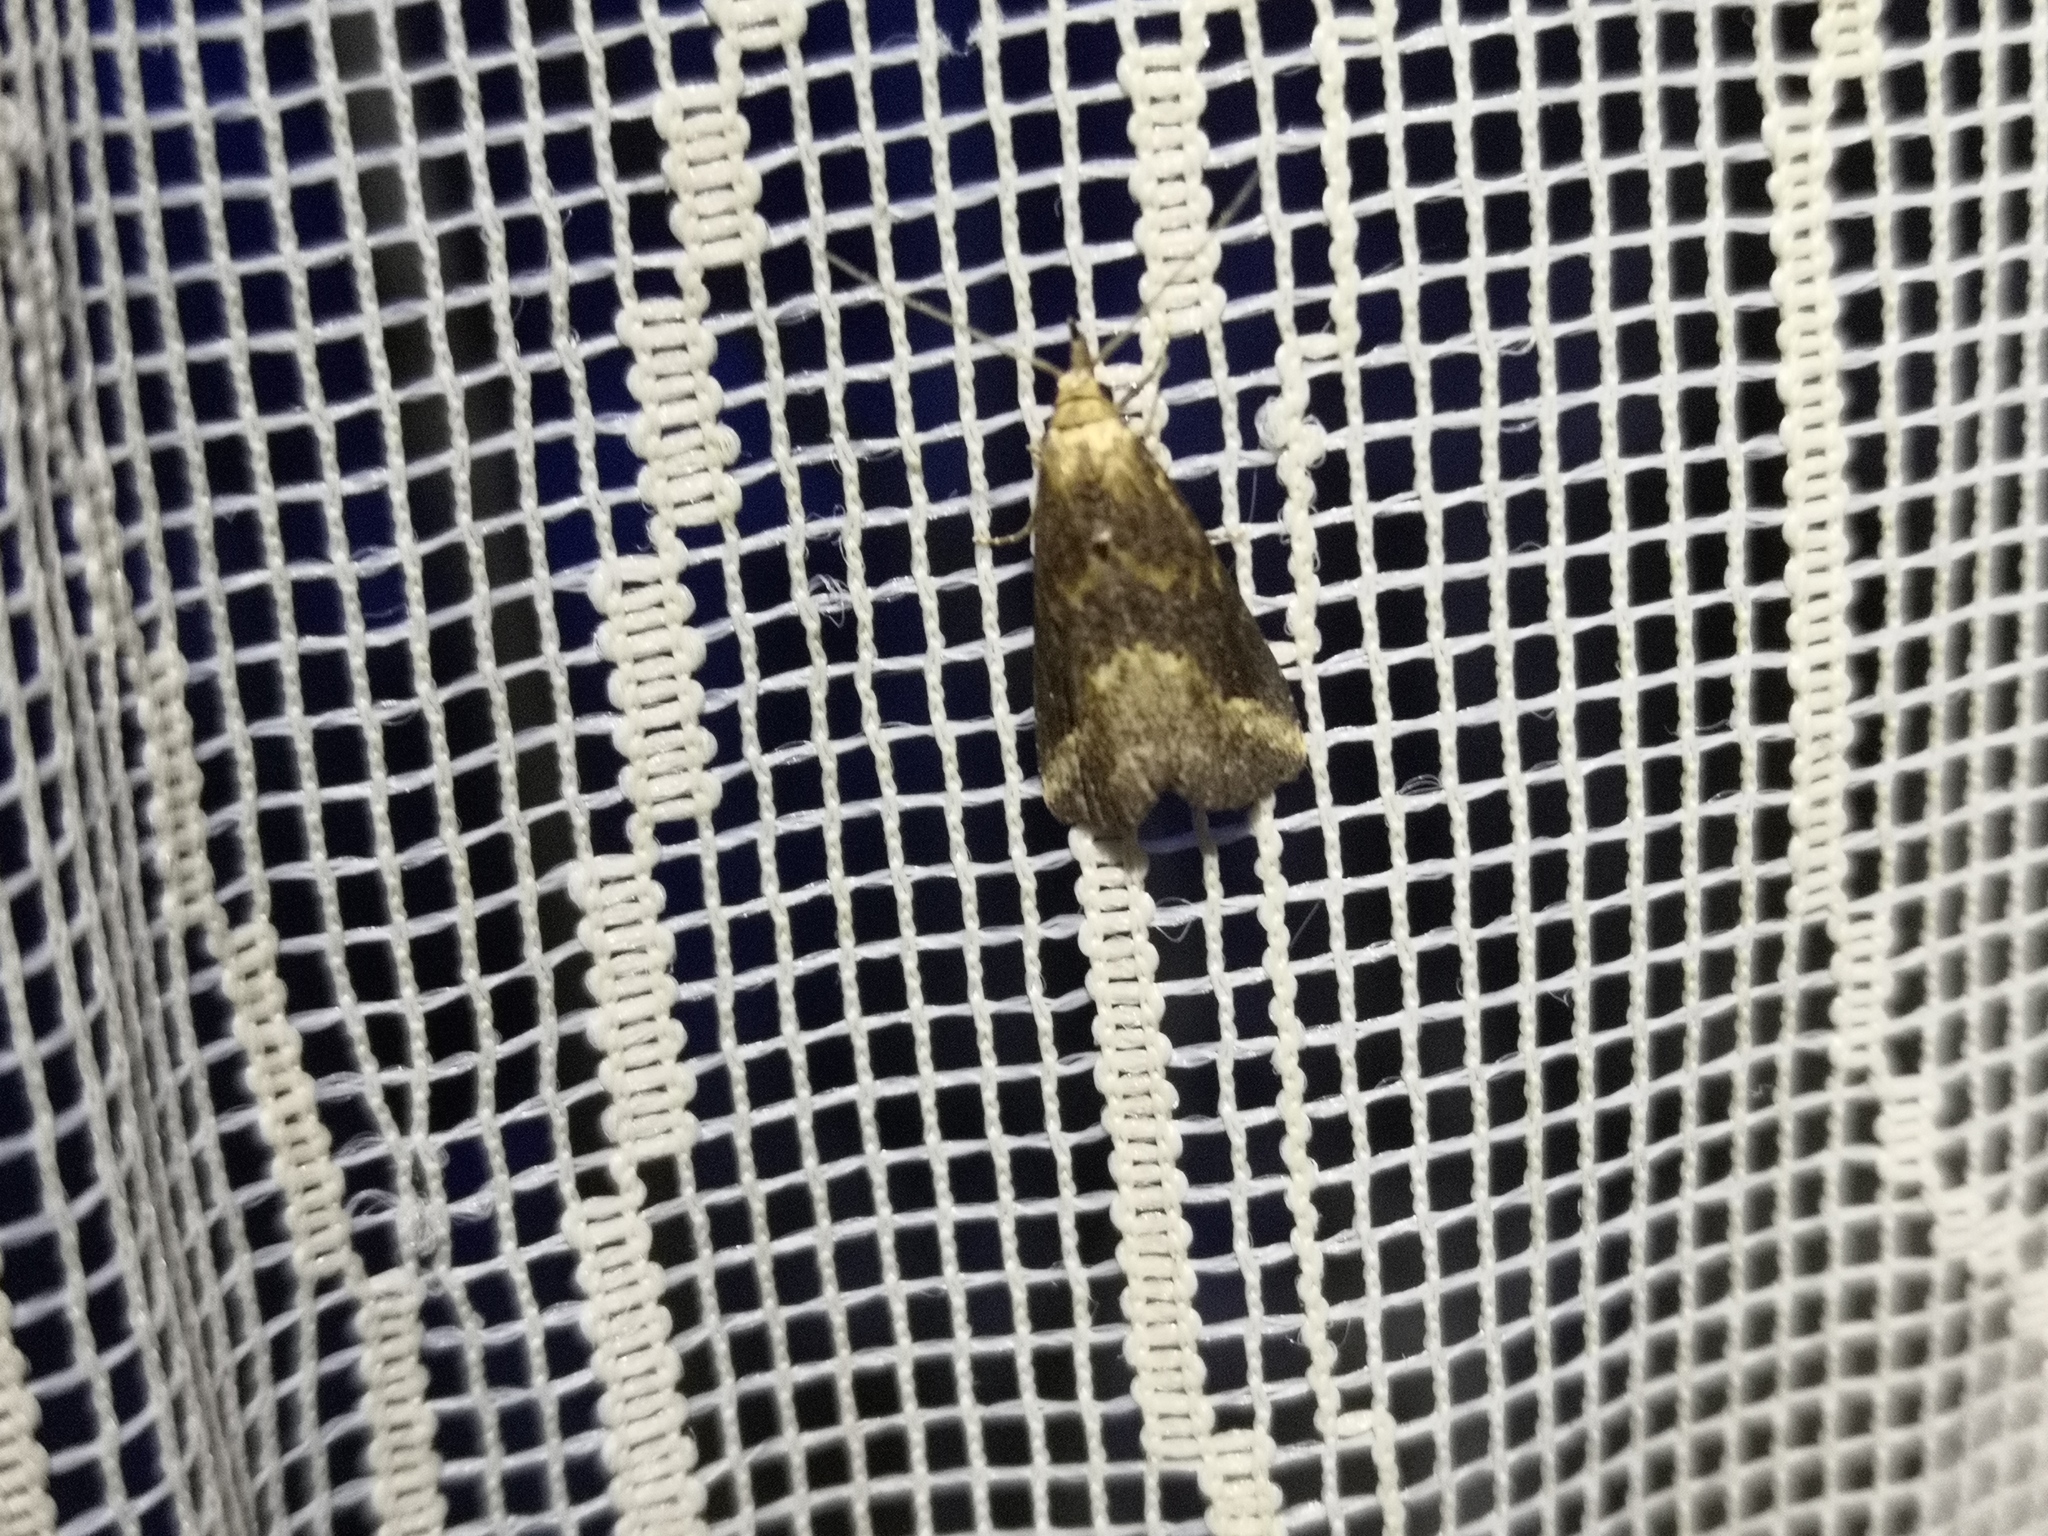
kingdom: Animalia
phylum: Arthropoda
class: Insecta
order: Lepidoptera
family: Erebidae
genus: Schrankia
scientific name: Schrankia costaestrigalis
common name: Pinion-streaked snout
